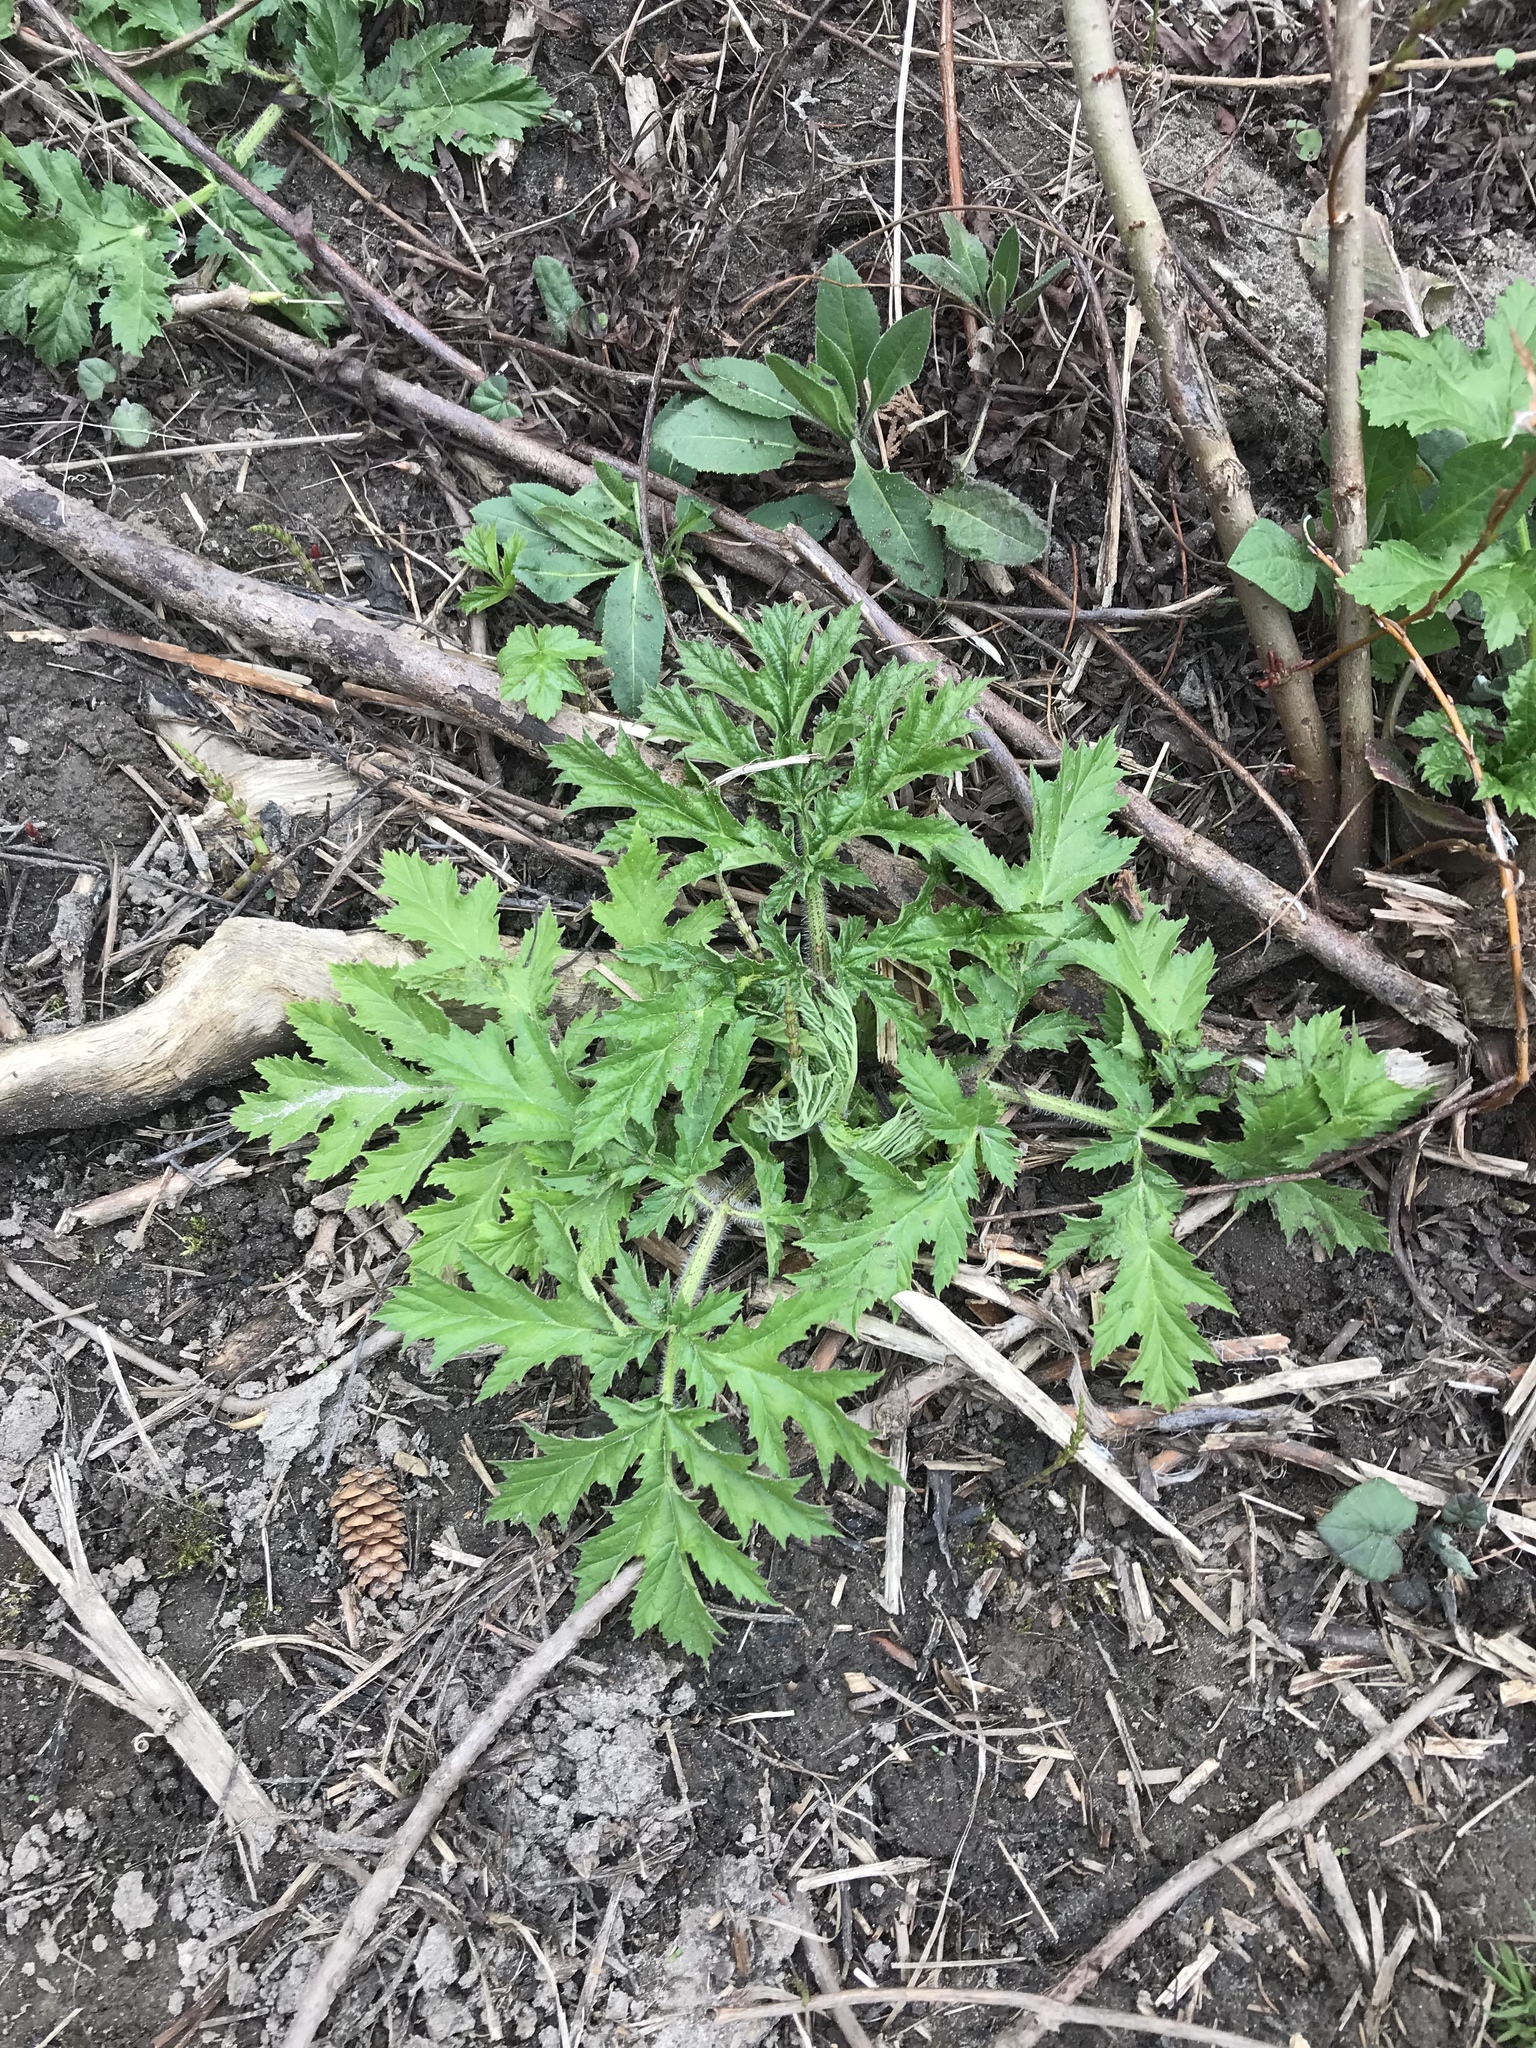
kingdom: Plantae
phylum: Tracheophyta
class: Magnoliopsida
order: Apiales
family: Apiaceae
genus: Heracleum
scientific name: Heracleum mantegazzianum
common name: Giant hogweed
